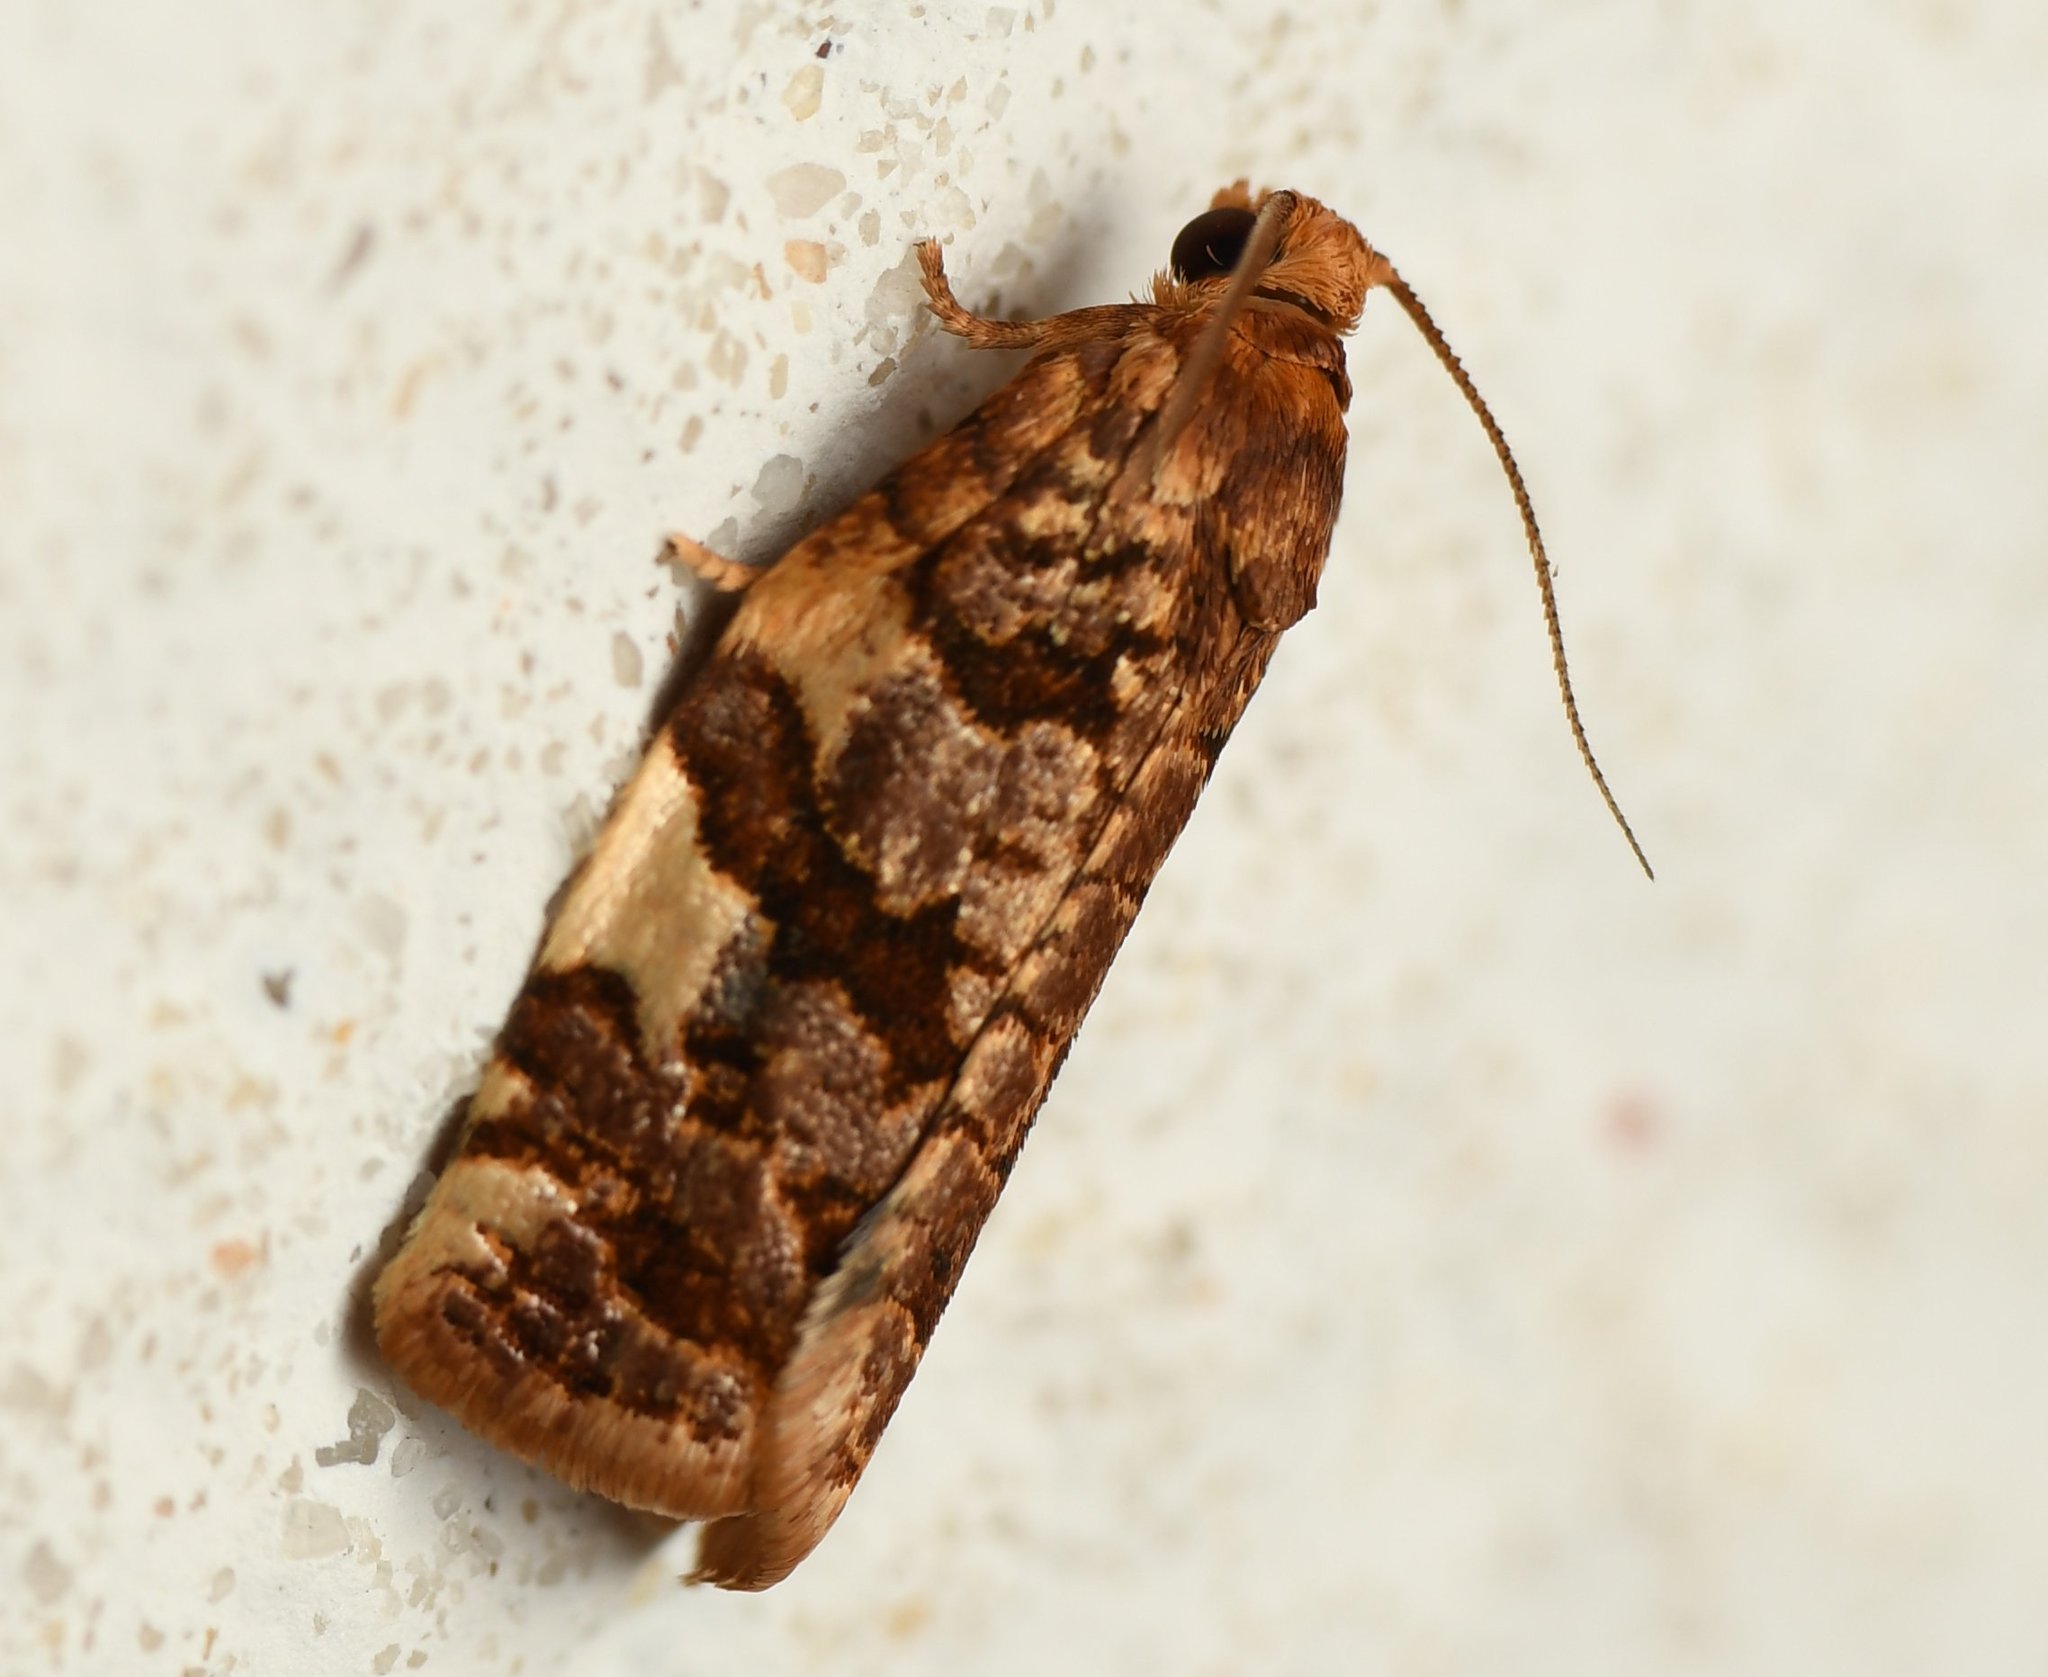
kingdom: Animalia
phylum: Arthropoda
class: Insecta
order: Lepidoptera
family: Tortricidae
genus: Archips
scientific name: Archips argyrospila
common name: Fruit-tree leafroller moth
